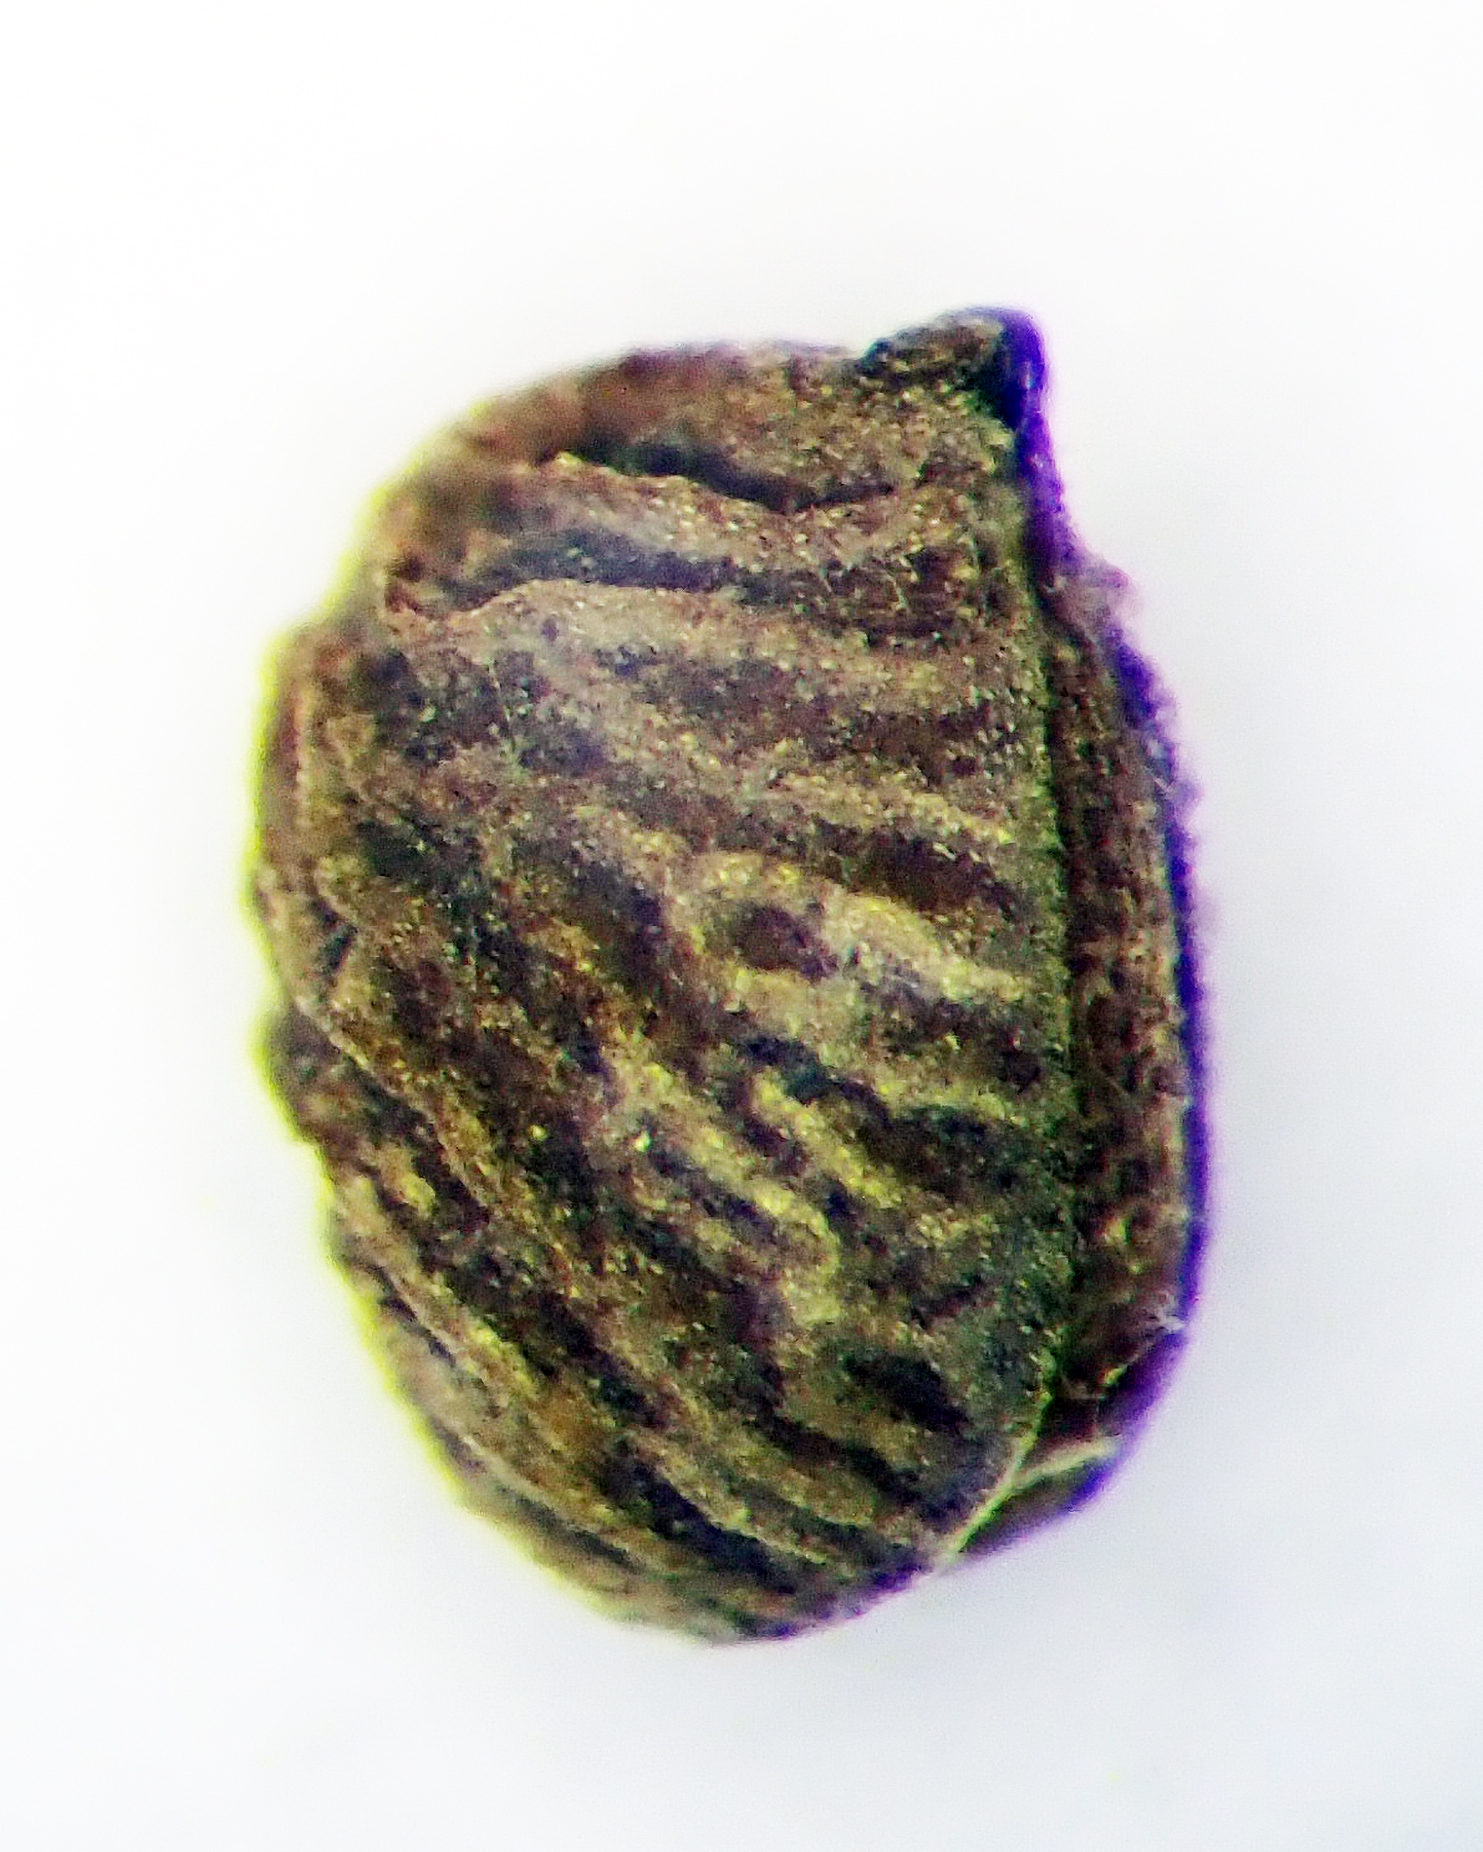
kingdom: Plantae
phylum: Tracheophyta
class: Magnoliopsida
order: Geraniales
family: Geraniaceae
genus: Geranium
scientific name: Geranium molle
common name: Dove's-foot crane's-bill
